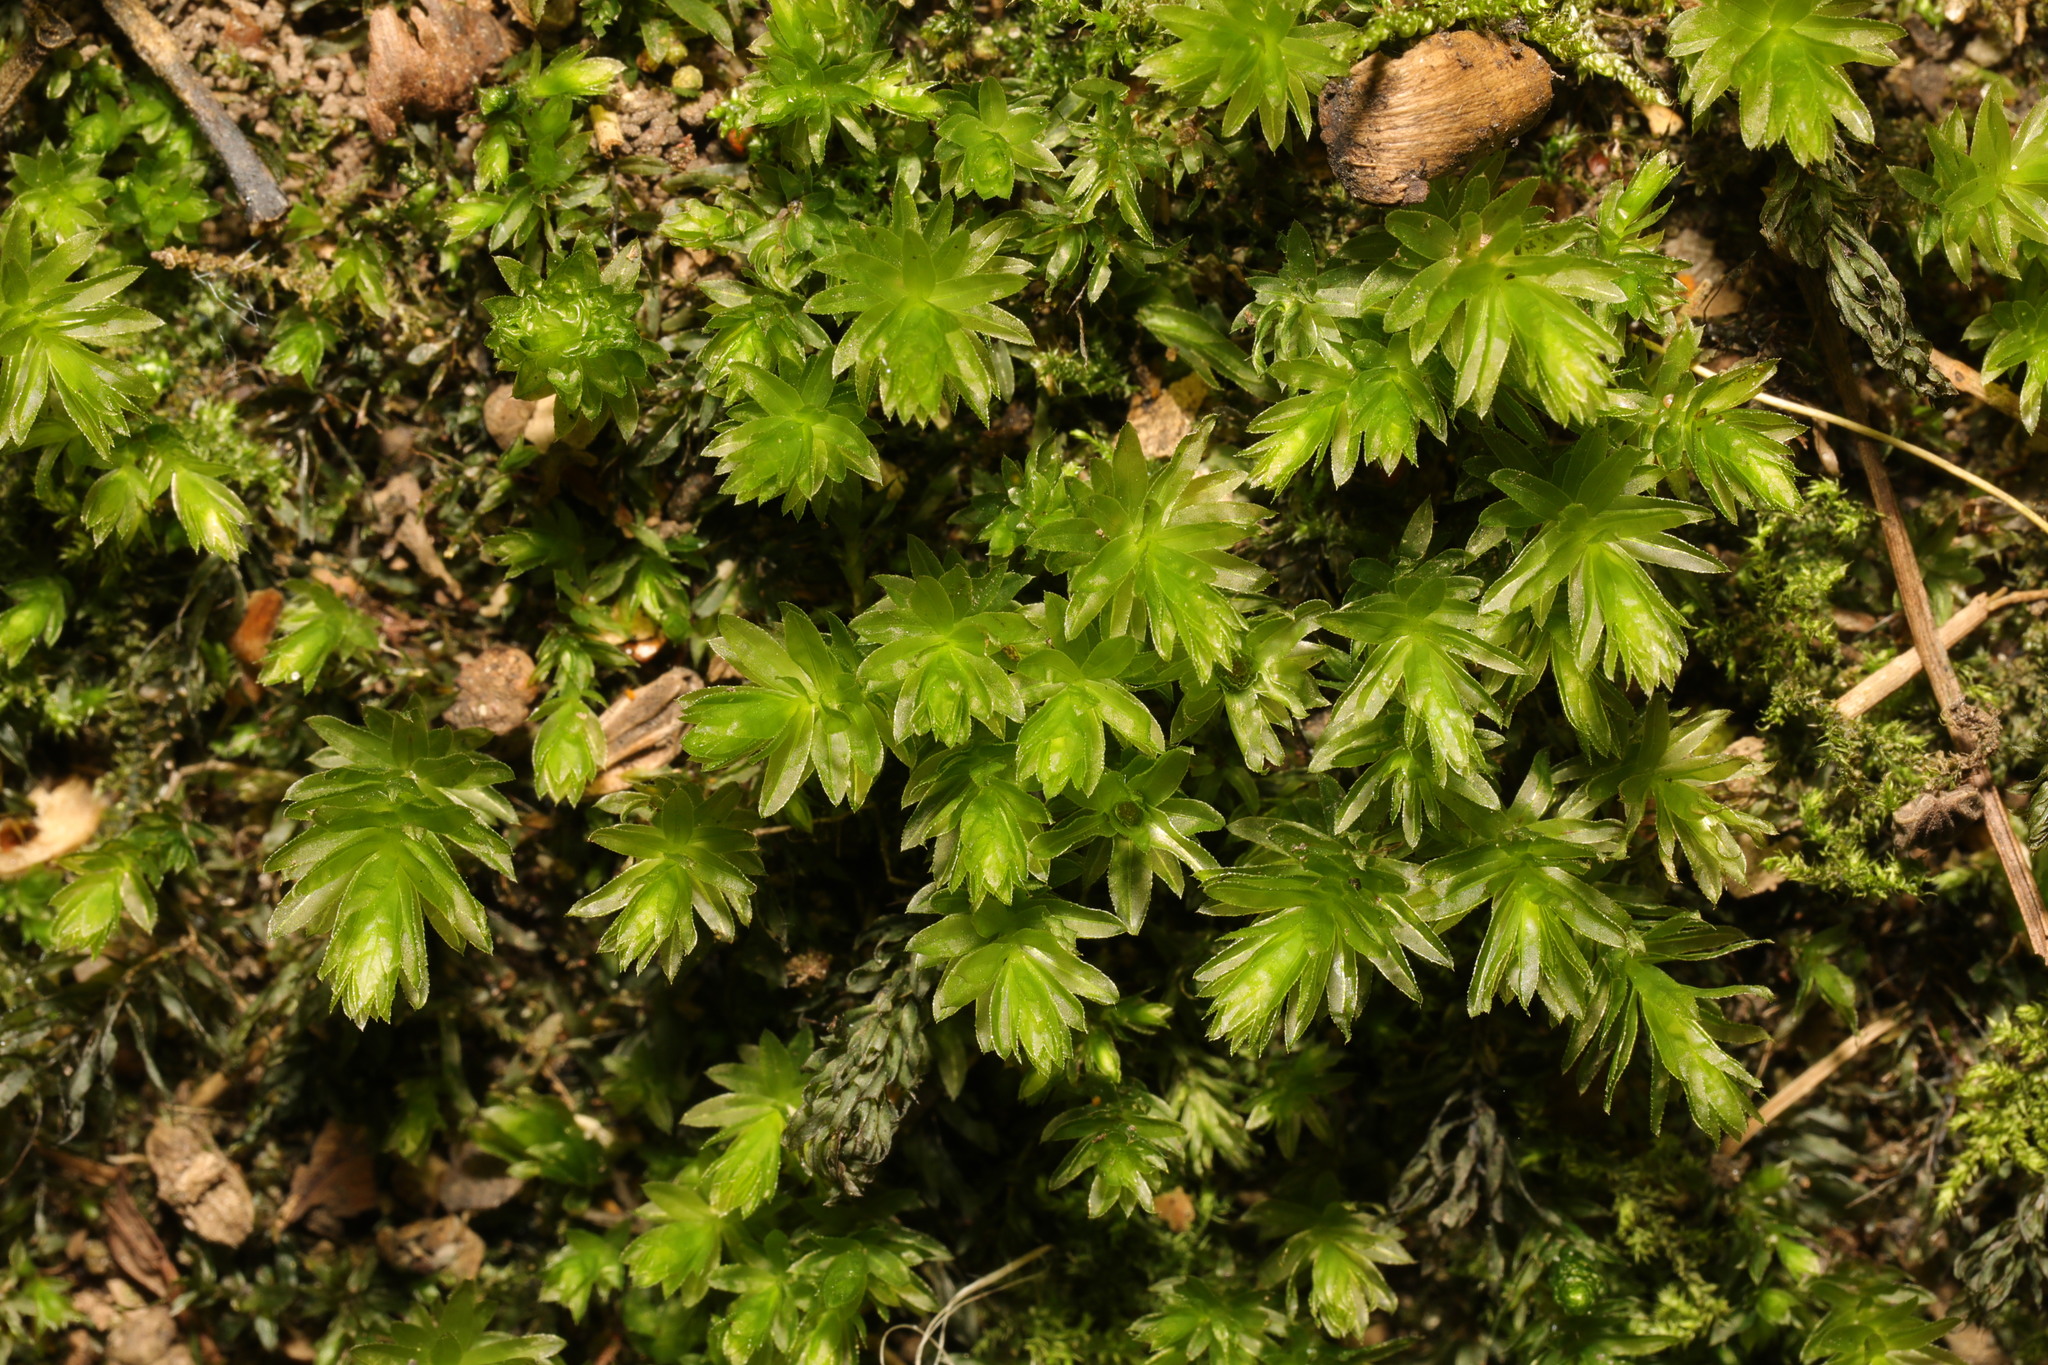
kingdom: Plantae
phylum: Bryophyta
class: Bryopsida
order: Bryales
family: Mniaceae
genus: Mnium
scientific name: Mnium hornum
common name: Swan's-neck leafy moss
